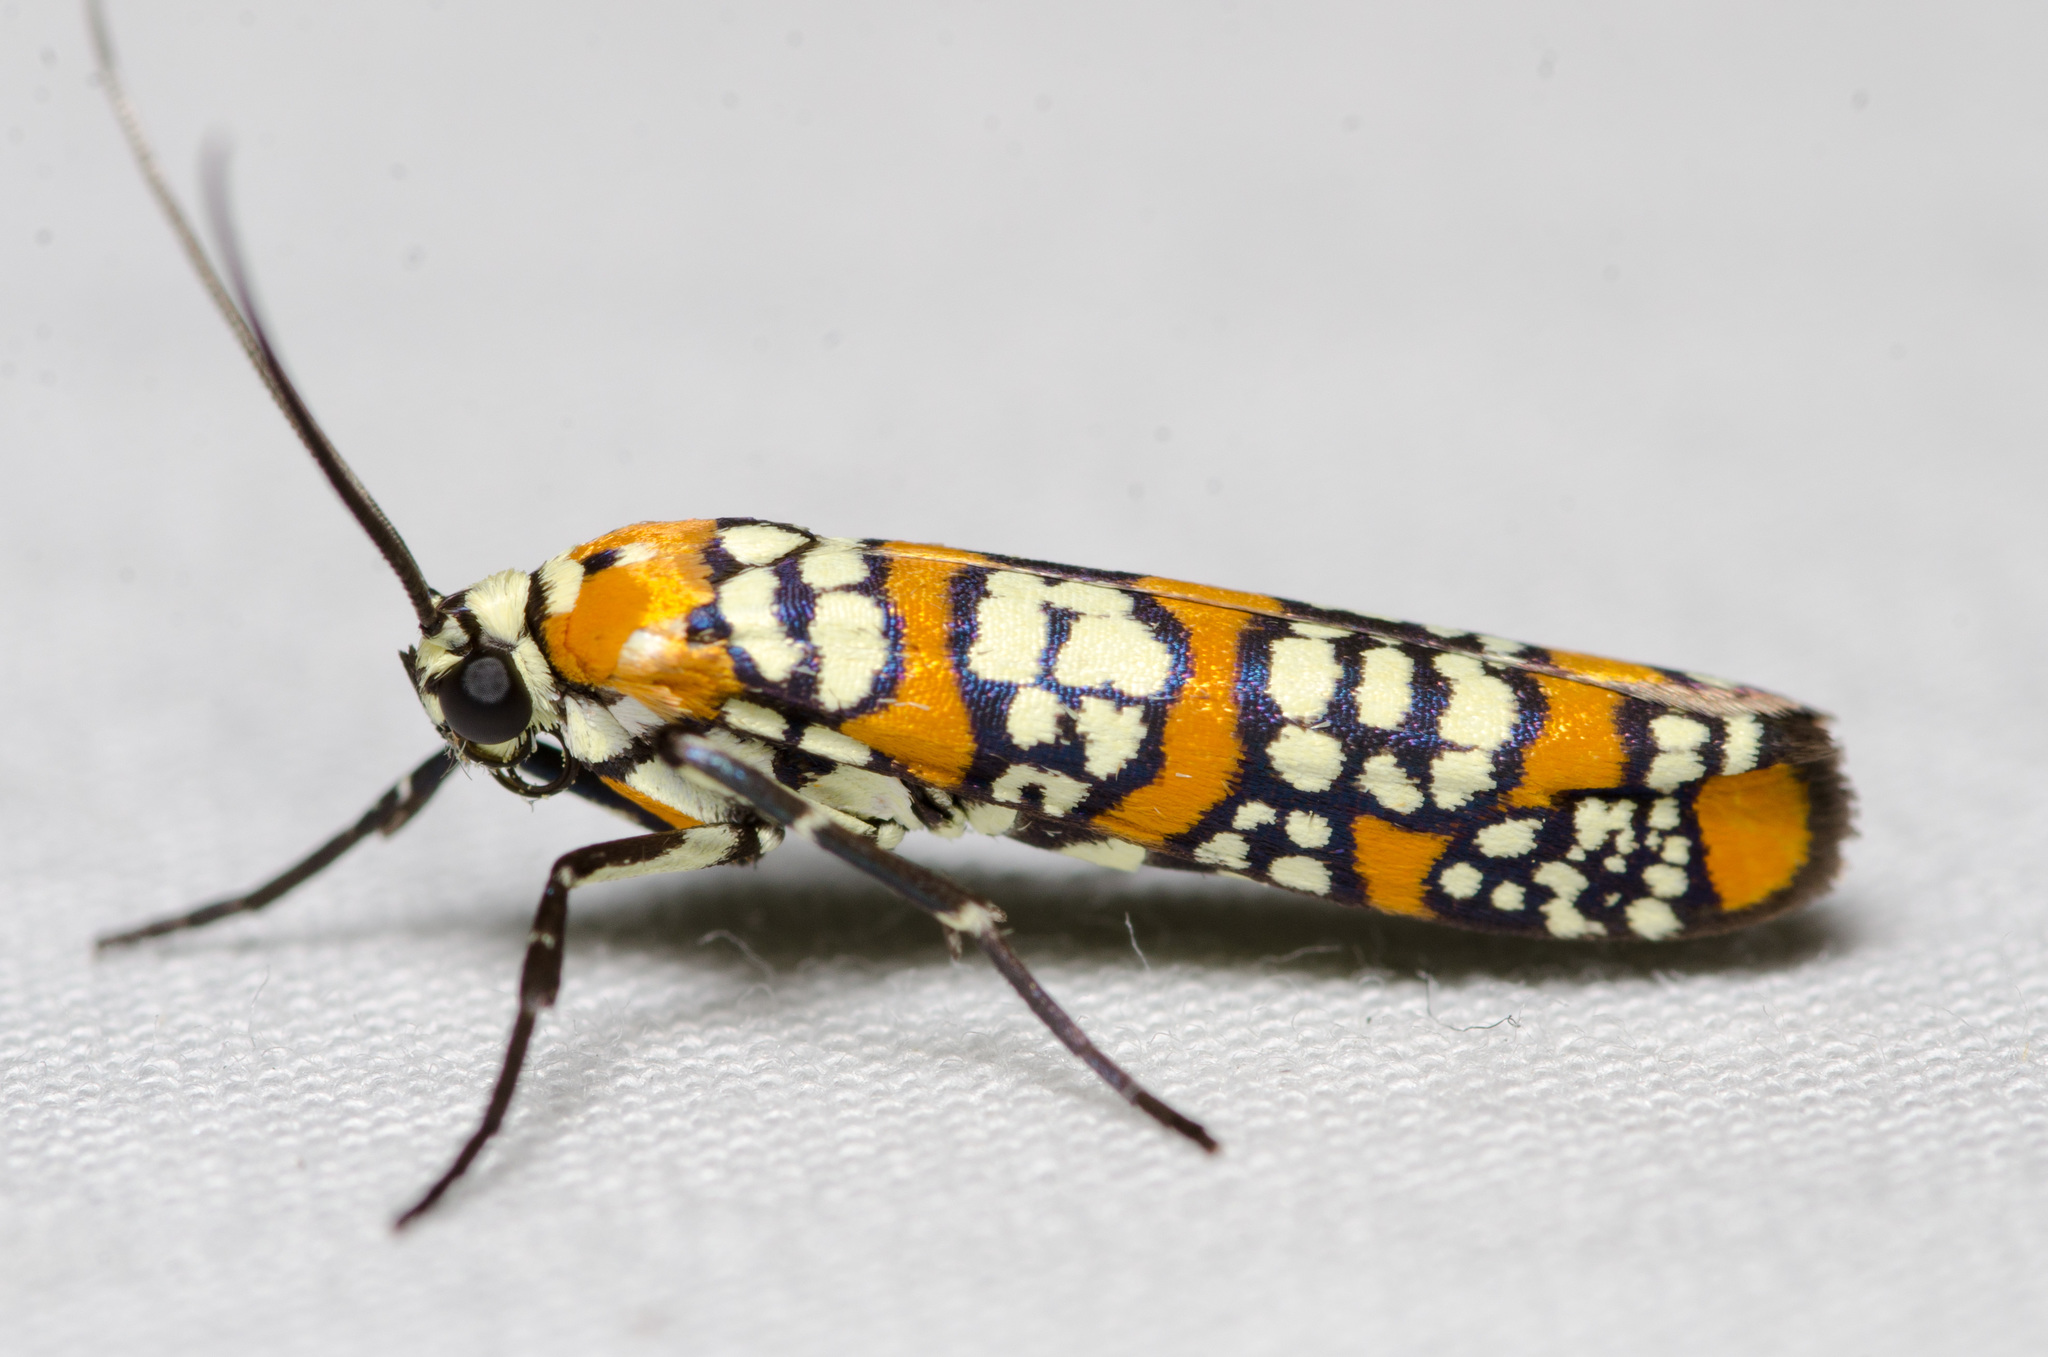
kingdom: Animalia
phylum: Arthropoda
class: Insecta
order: Lepidoptera
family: Attevidae
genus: Atteva
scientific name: Atteva punctella
